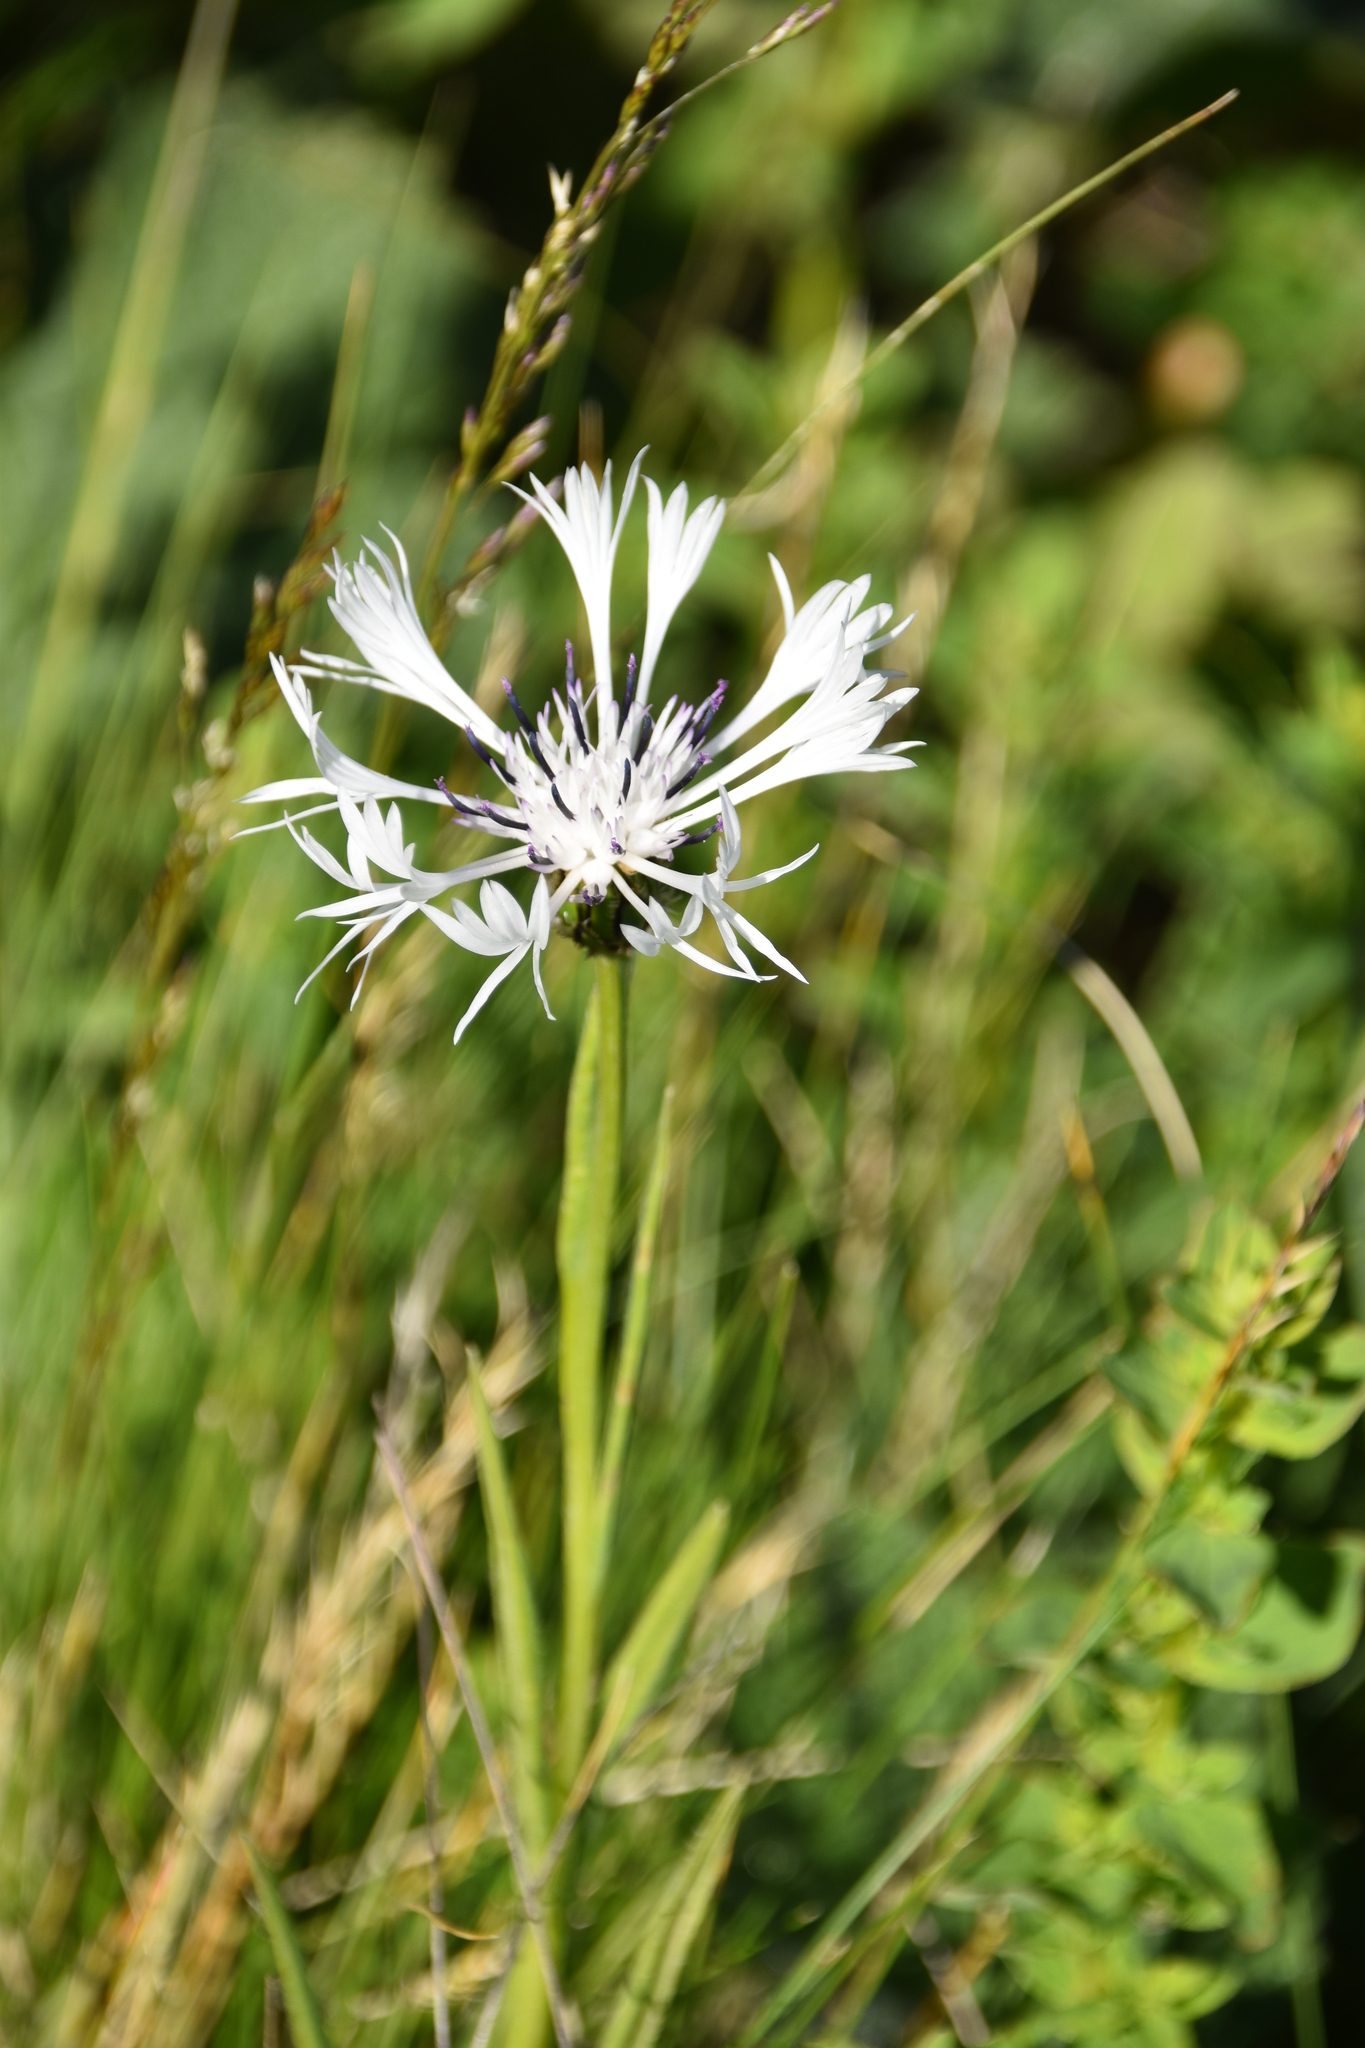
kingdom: Plantae
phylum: Tracheophyta
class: Magnoliopsida
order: Asterales
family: Asteraceae
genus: Centaurea
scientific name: Centaurea napulifera
